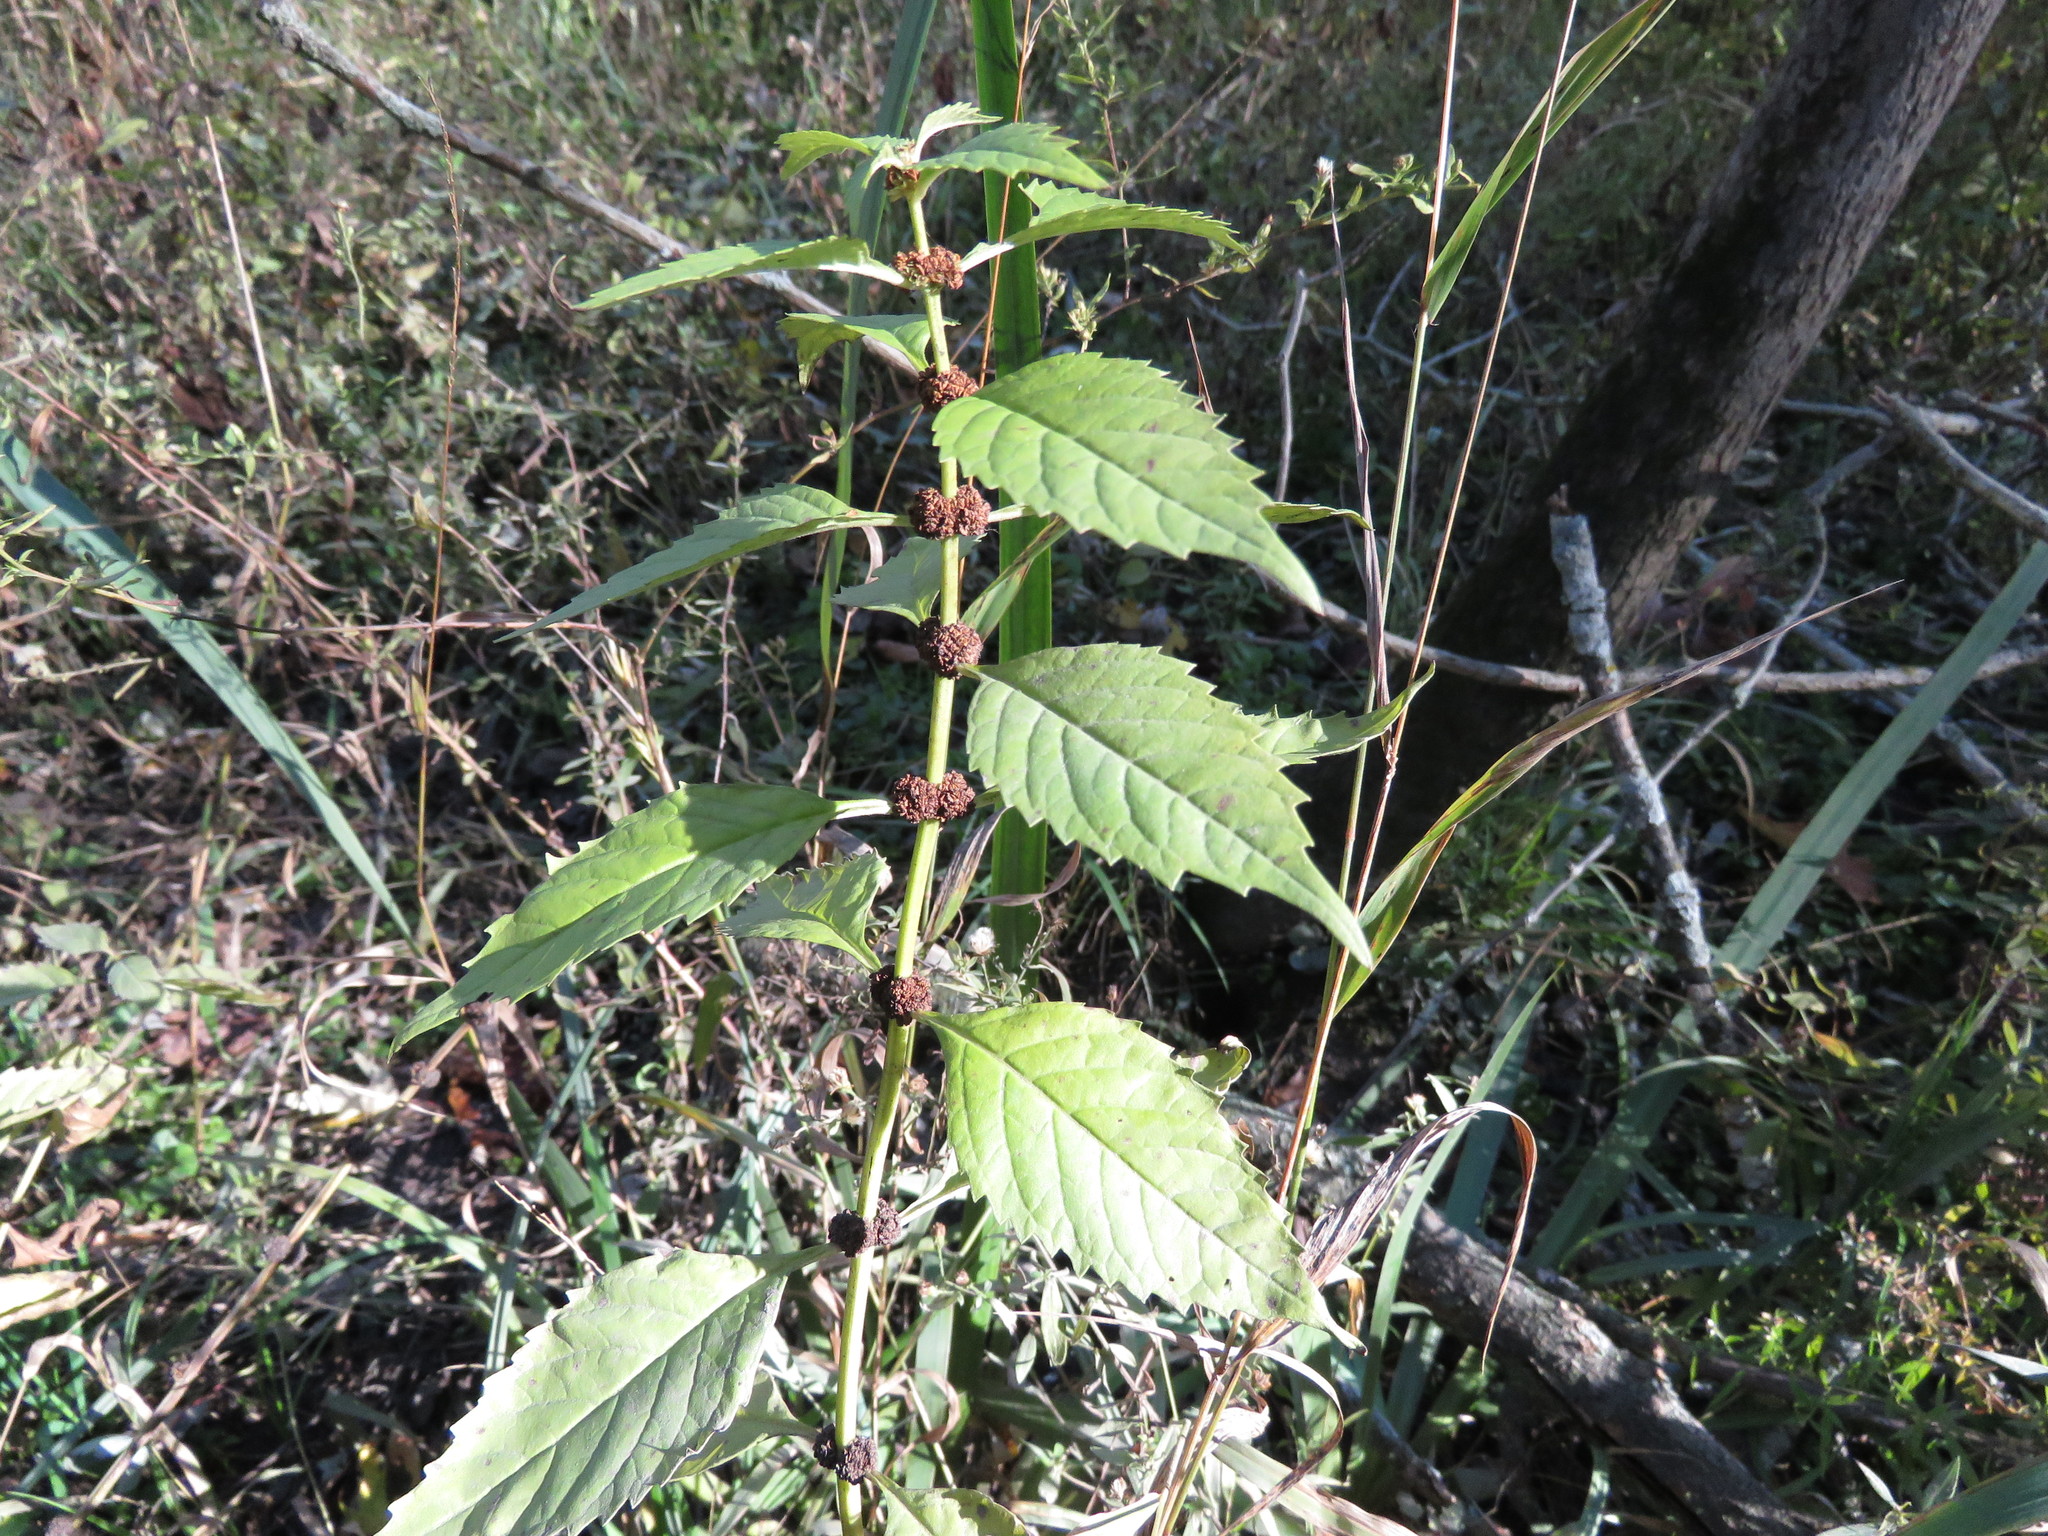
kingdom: Plantae
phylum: Tracheophyta
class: Magnoliopsida
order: Lamiales
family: Lamiaceae
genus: Lycopus
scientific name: Lycopus virginicus
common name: Bugleweed
